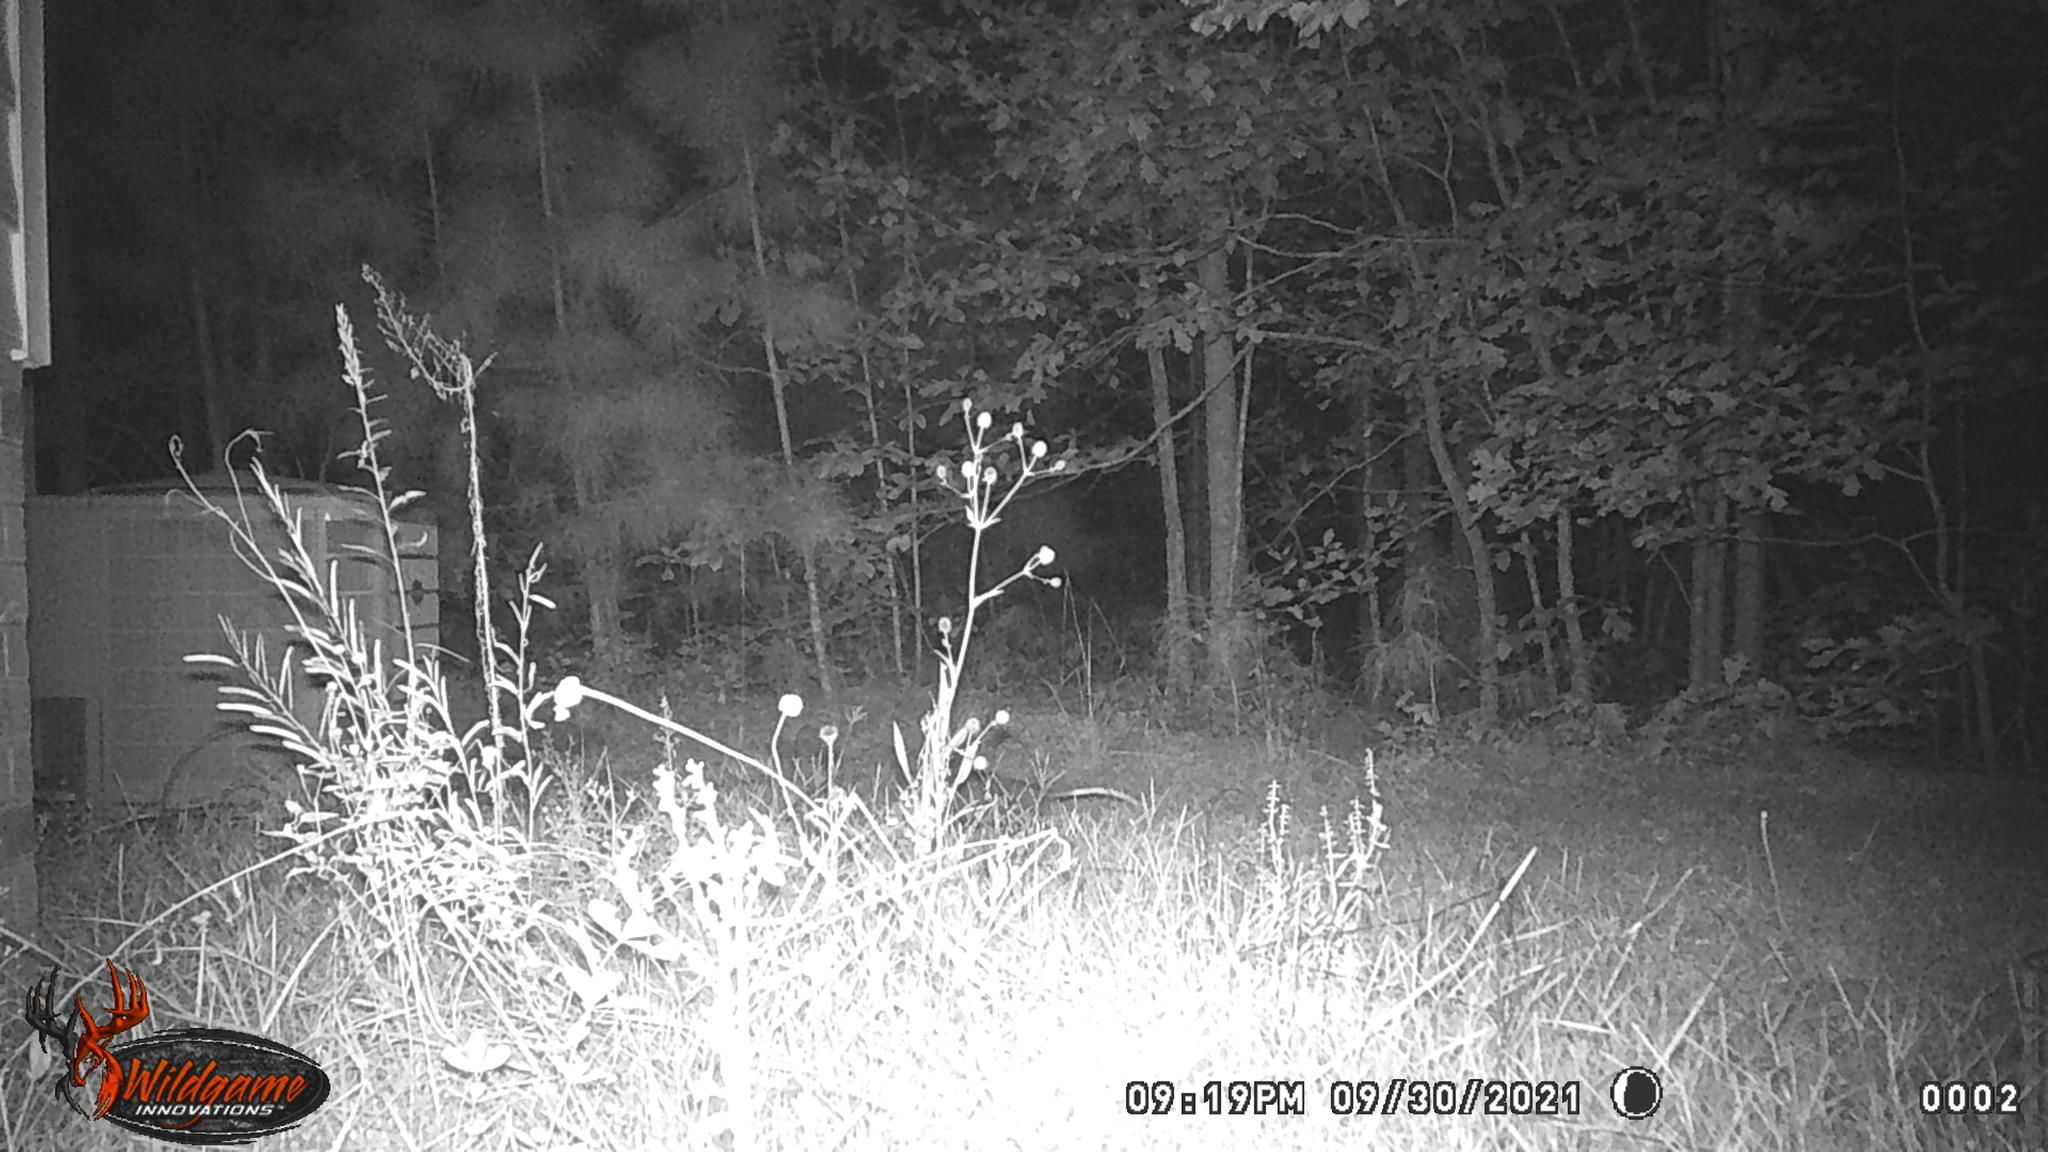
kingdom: Animalia
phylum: Chordata
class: Mammalia
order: Didelphimorphia
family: Didelphidae
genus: Didelphis
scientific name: Didelphis virginiana
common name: Virginia opossum
